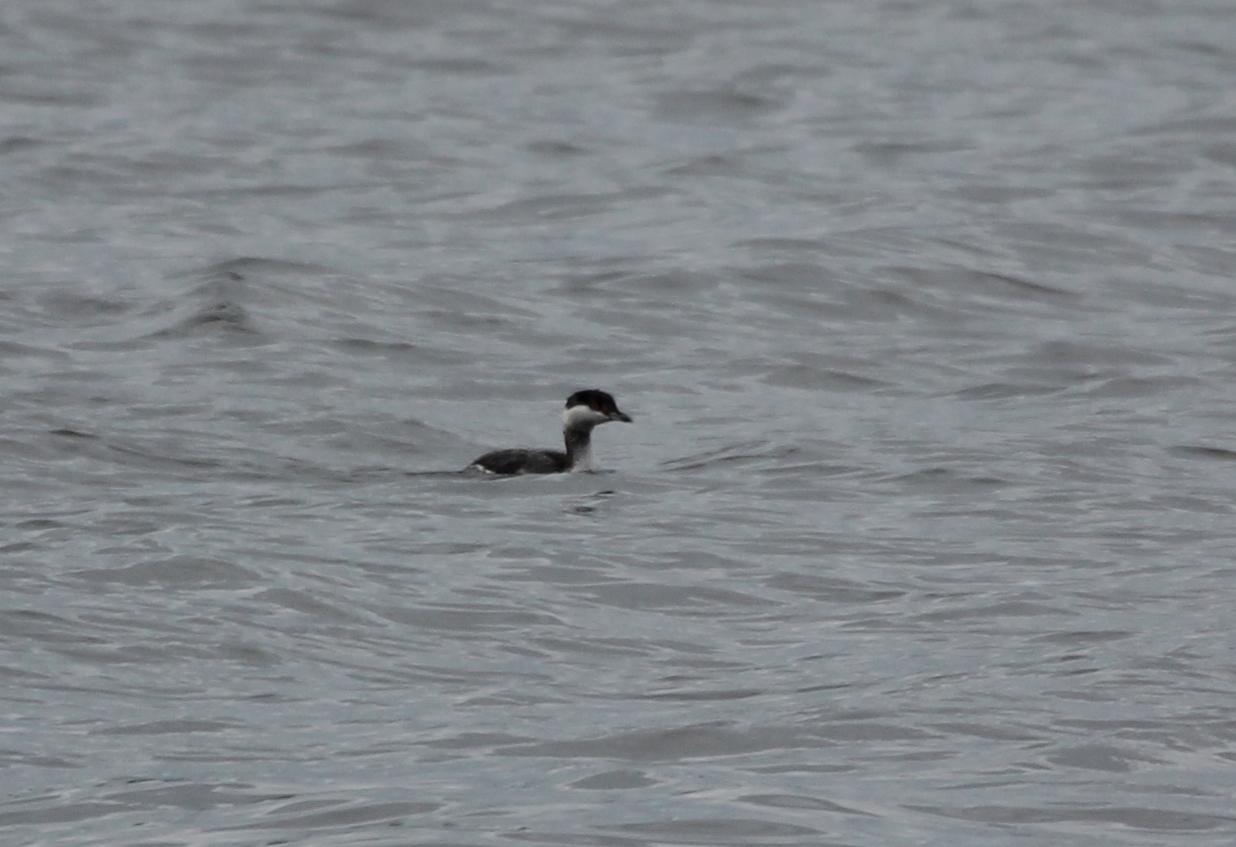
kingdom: Animalia
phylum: Chordata
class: Aves
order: Podicipediformes
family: Podicipedidae
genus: Podiceps
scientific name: Podiceps auritus
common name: Horned grebe
